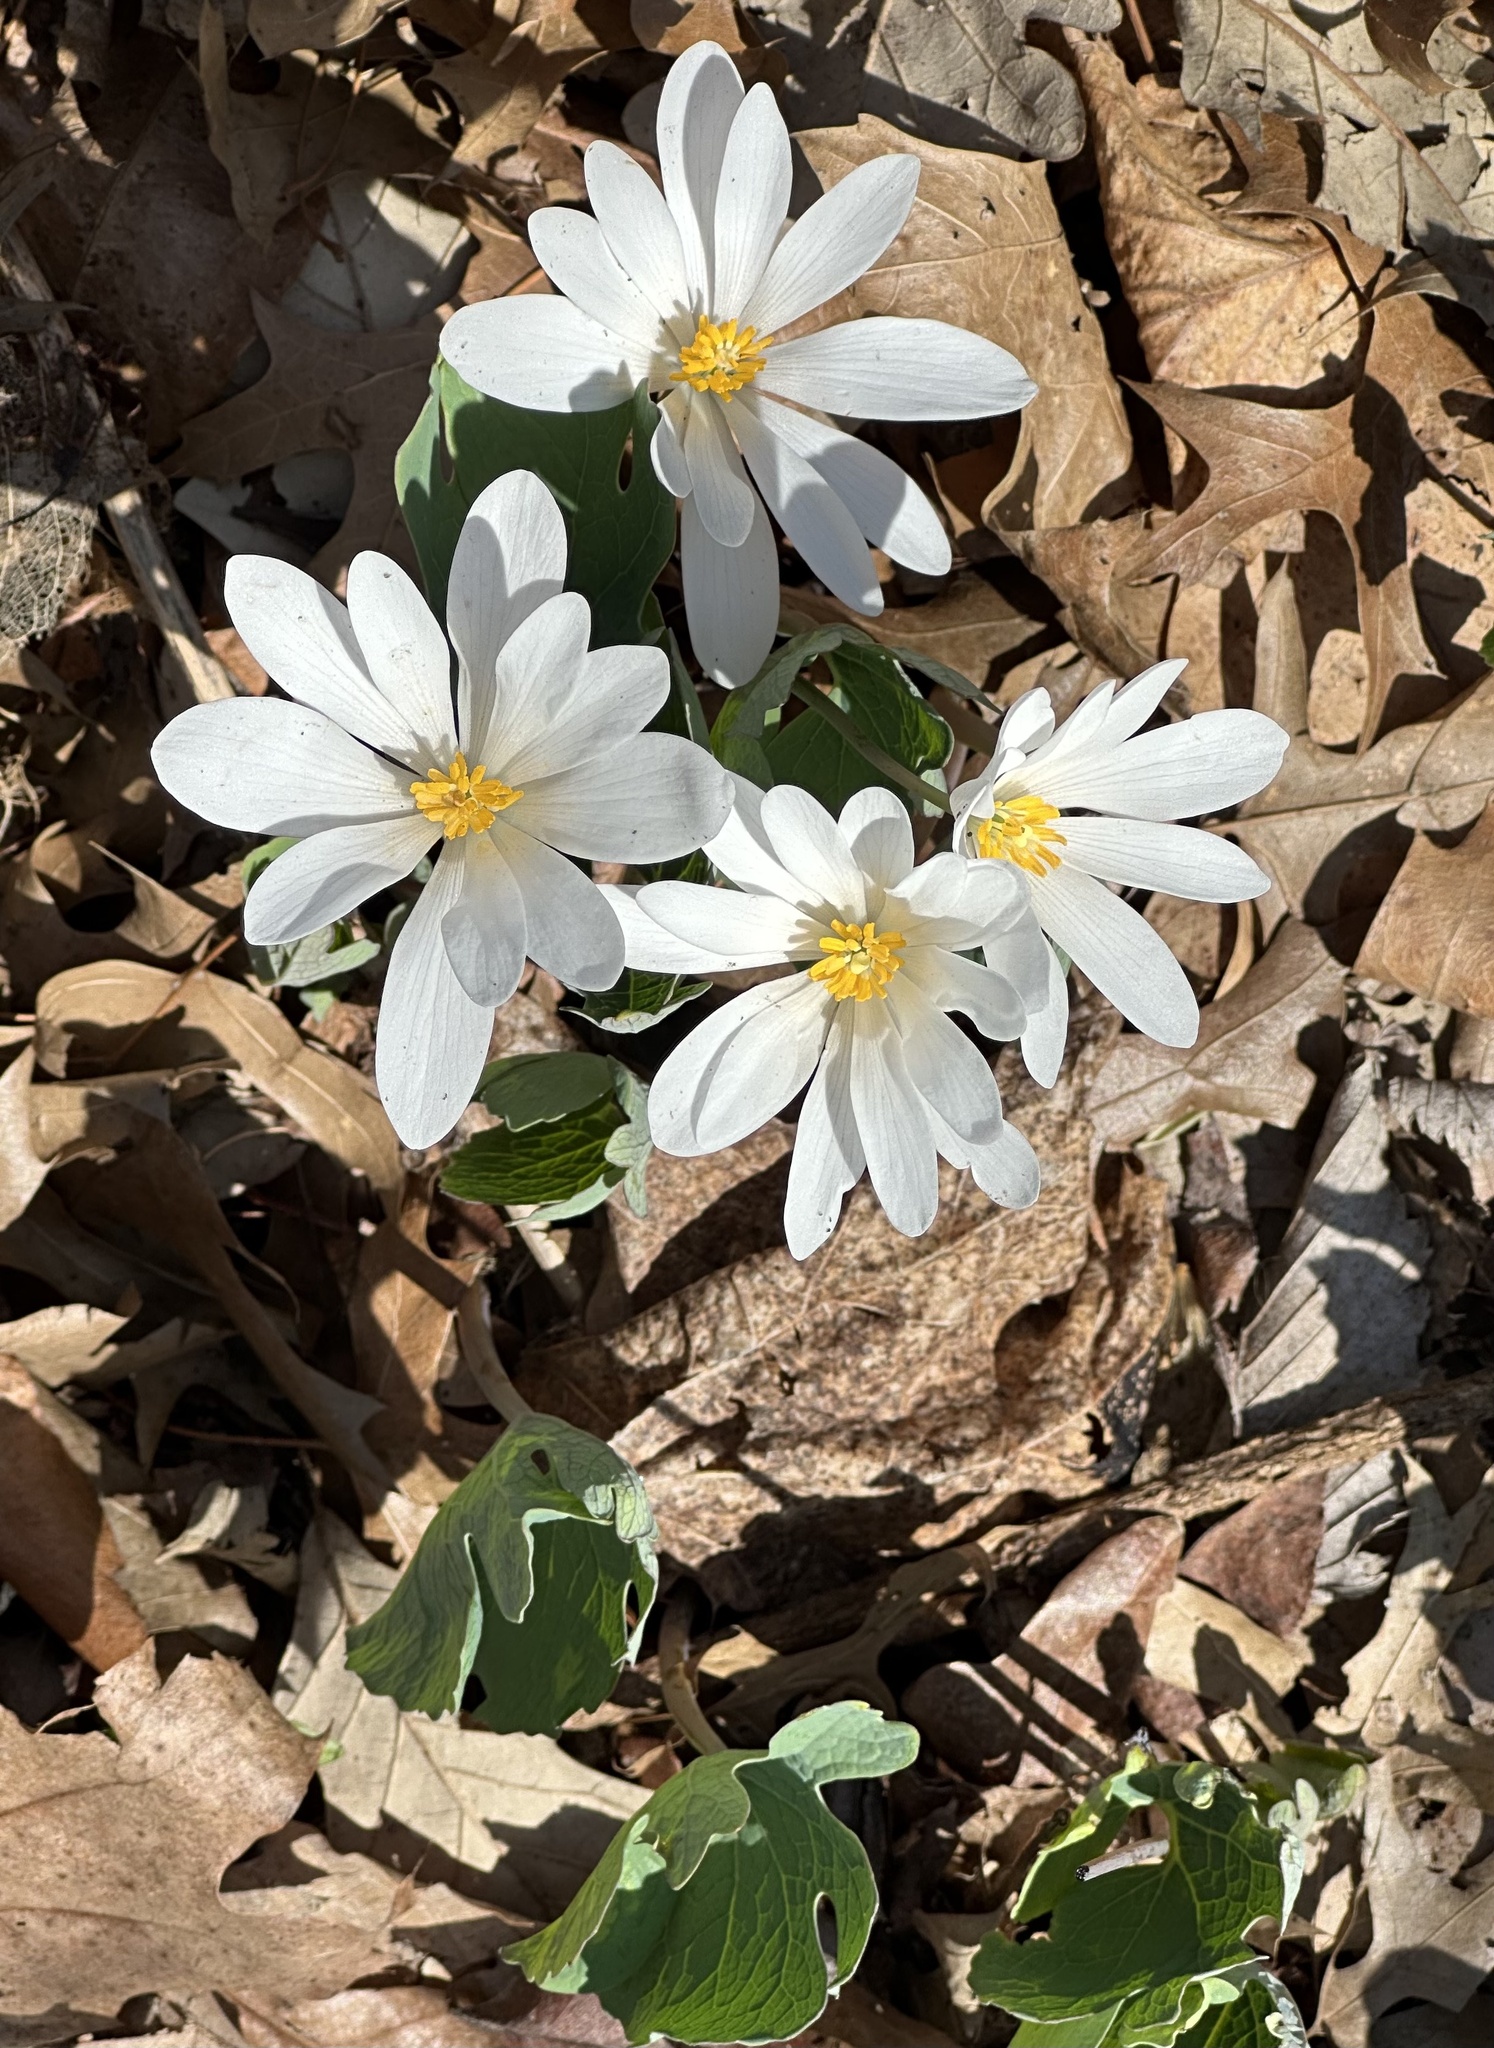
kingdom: Plantae
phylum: Tracheophyta
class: Magnoliopsida
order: Ranunculales
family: Papaveraceae
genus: Sanguinaria
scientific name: Sanguinaria canadensis
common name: Bloodroot
